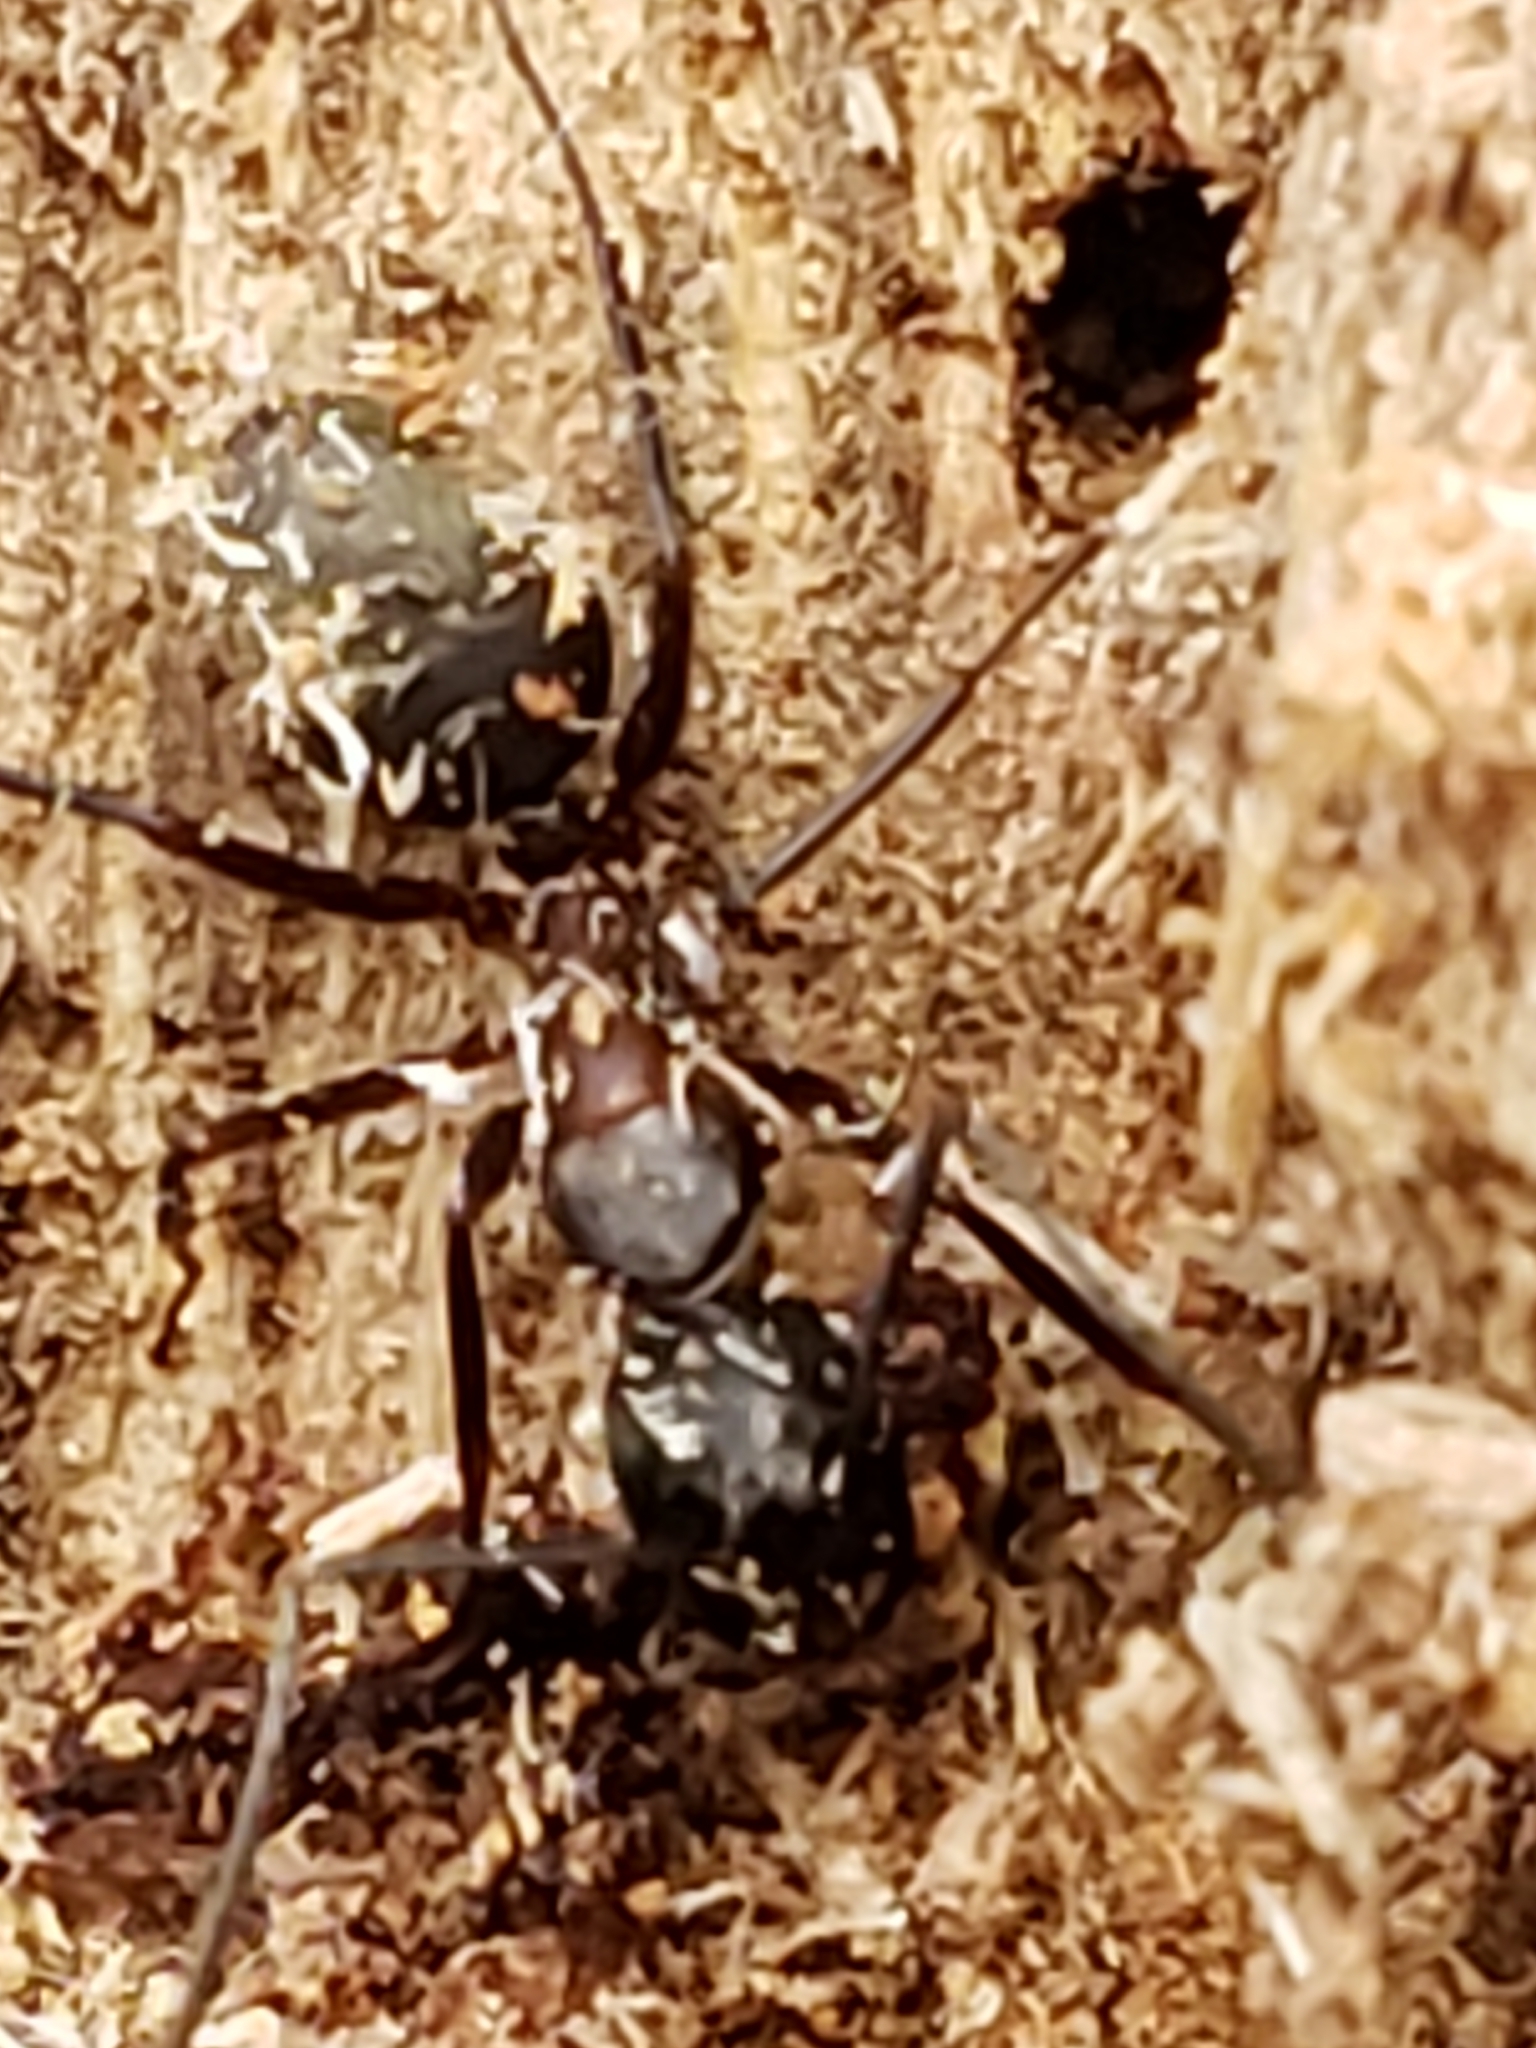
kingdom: Animalia
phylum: Arthropoda
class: Insecta
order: Hymenoptera
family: Formicidae
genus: Camponotus
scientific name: Camponotus chromaiodes
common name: Red carpenter ant
